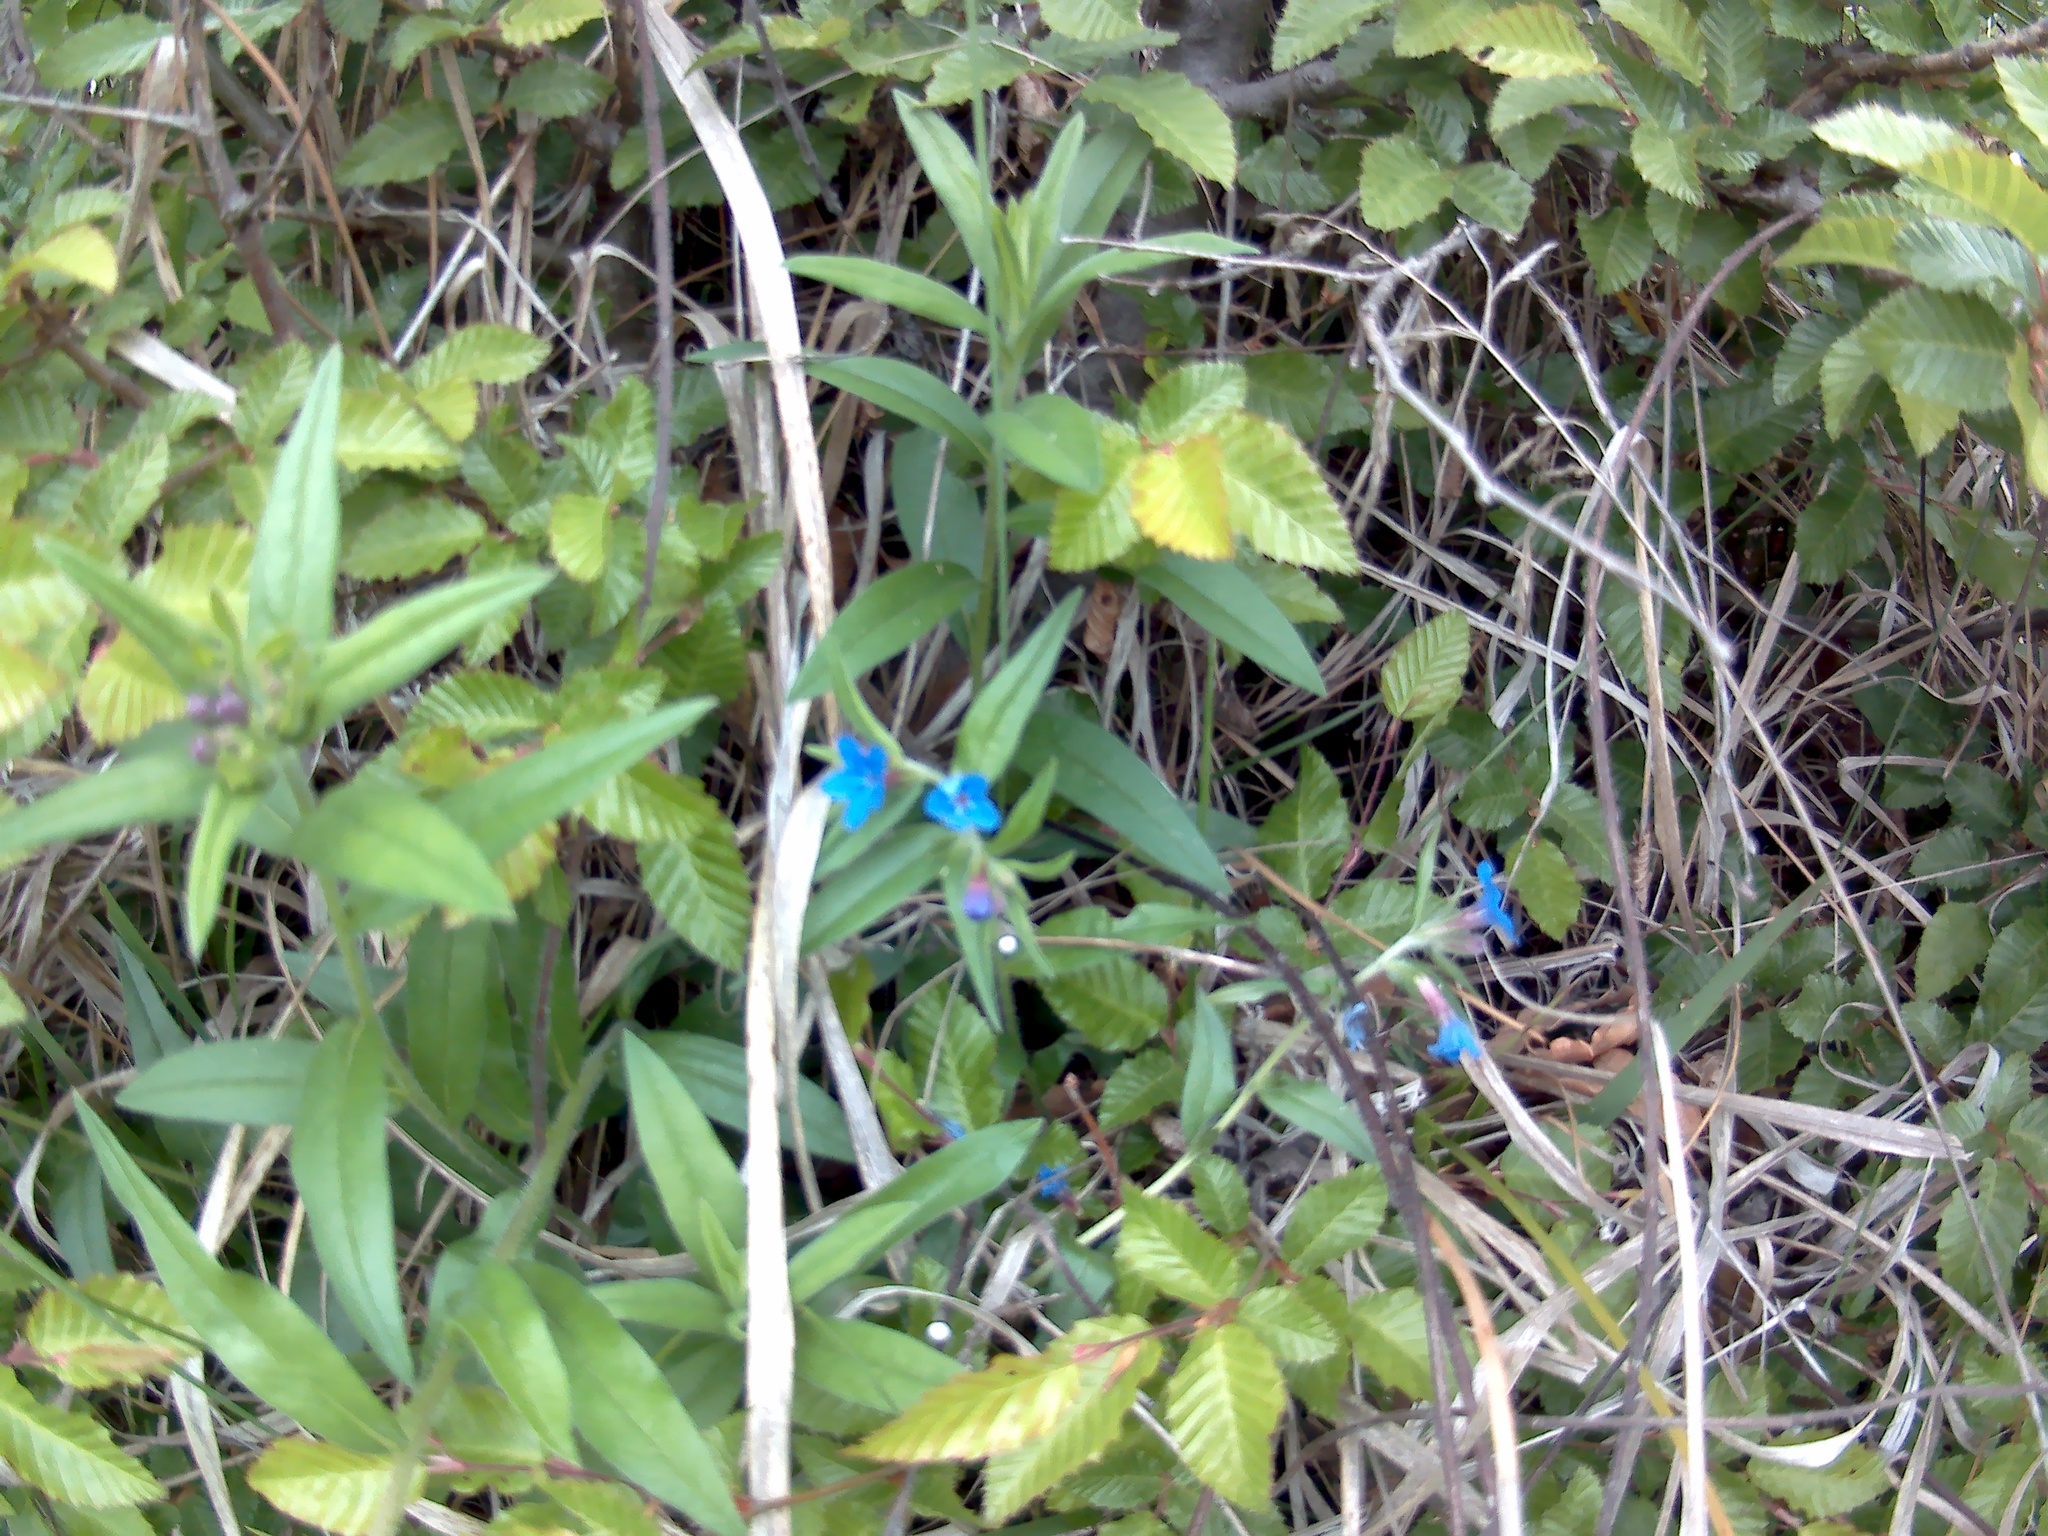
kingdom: Plantae
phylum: Tracheophyta
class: Magnoliopsida
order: Boraginales
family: Boraginaceae
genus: Aegonychon
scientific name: Aegonychon purpurocaeruleum
